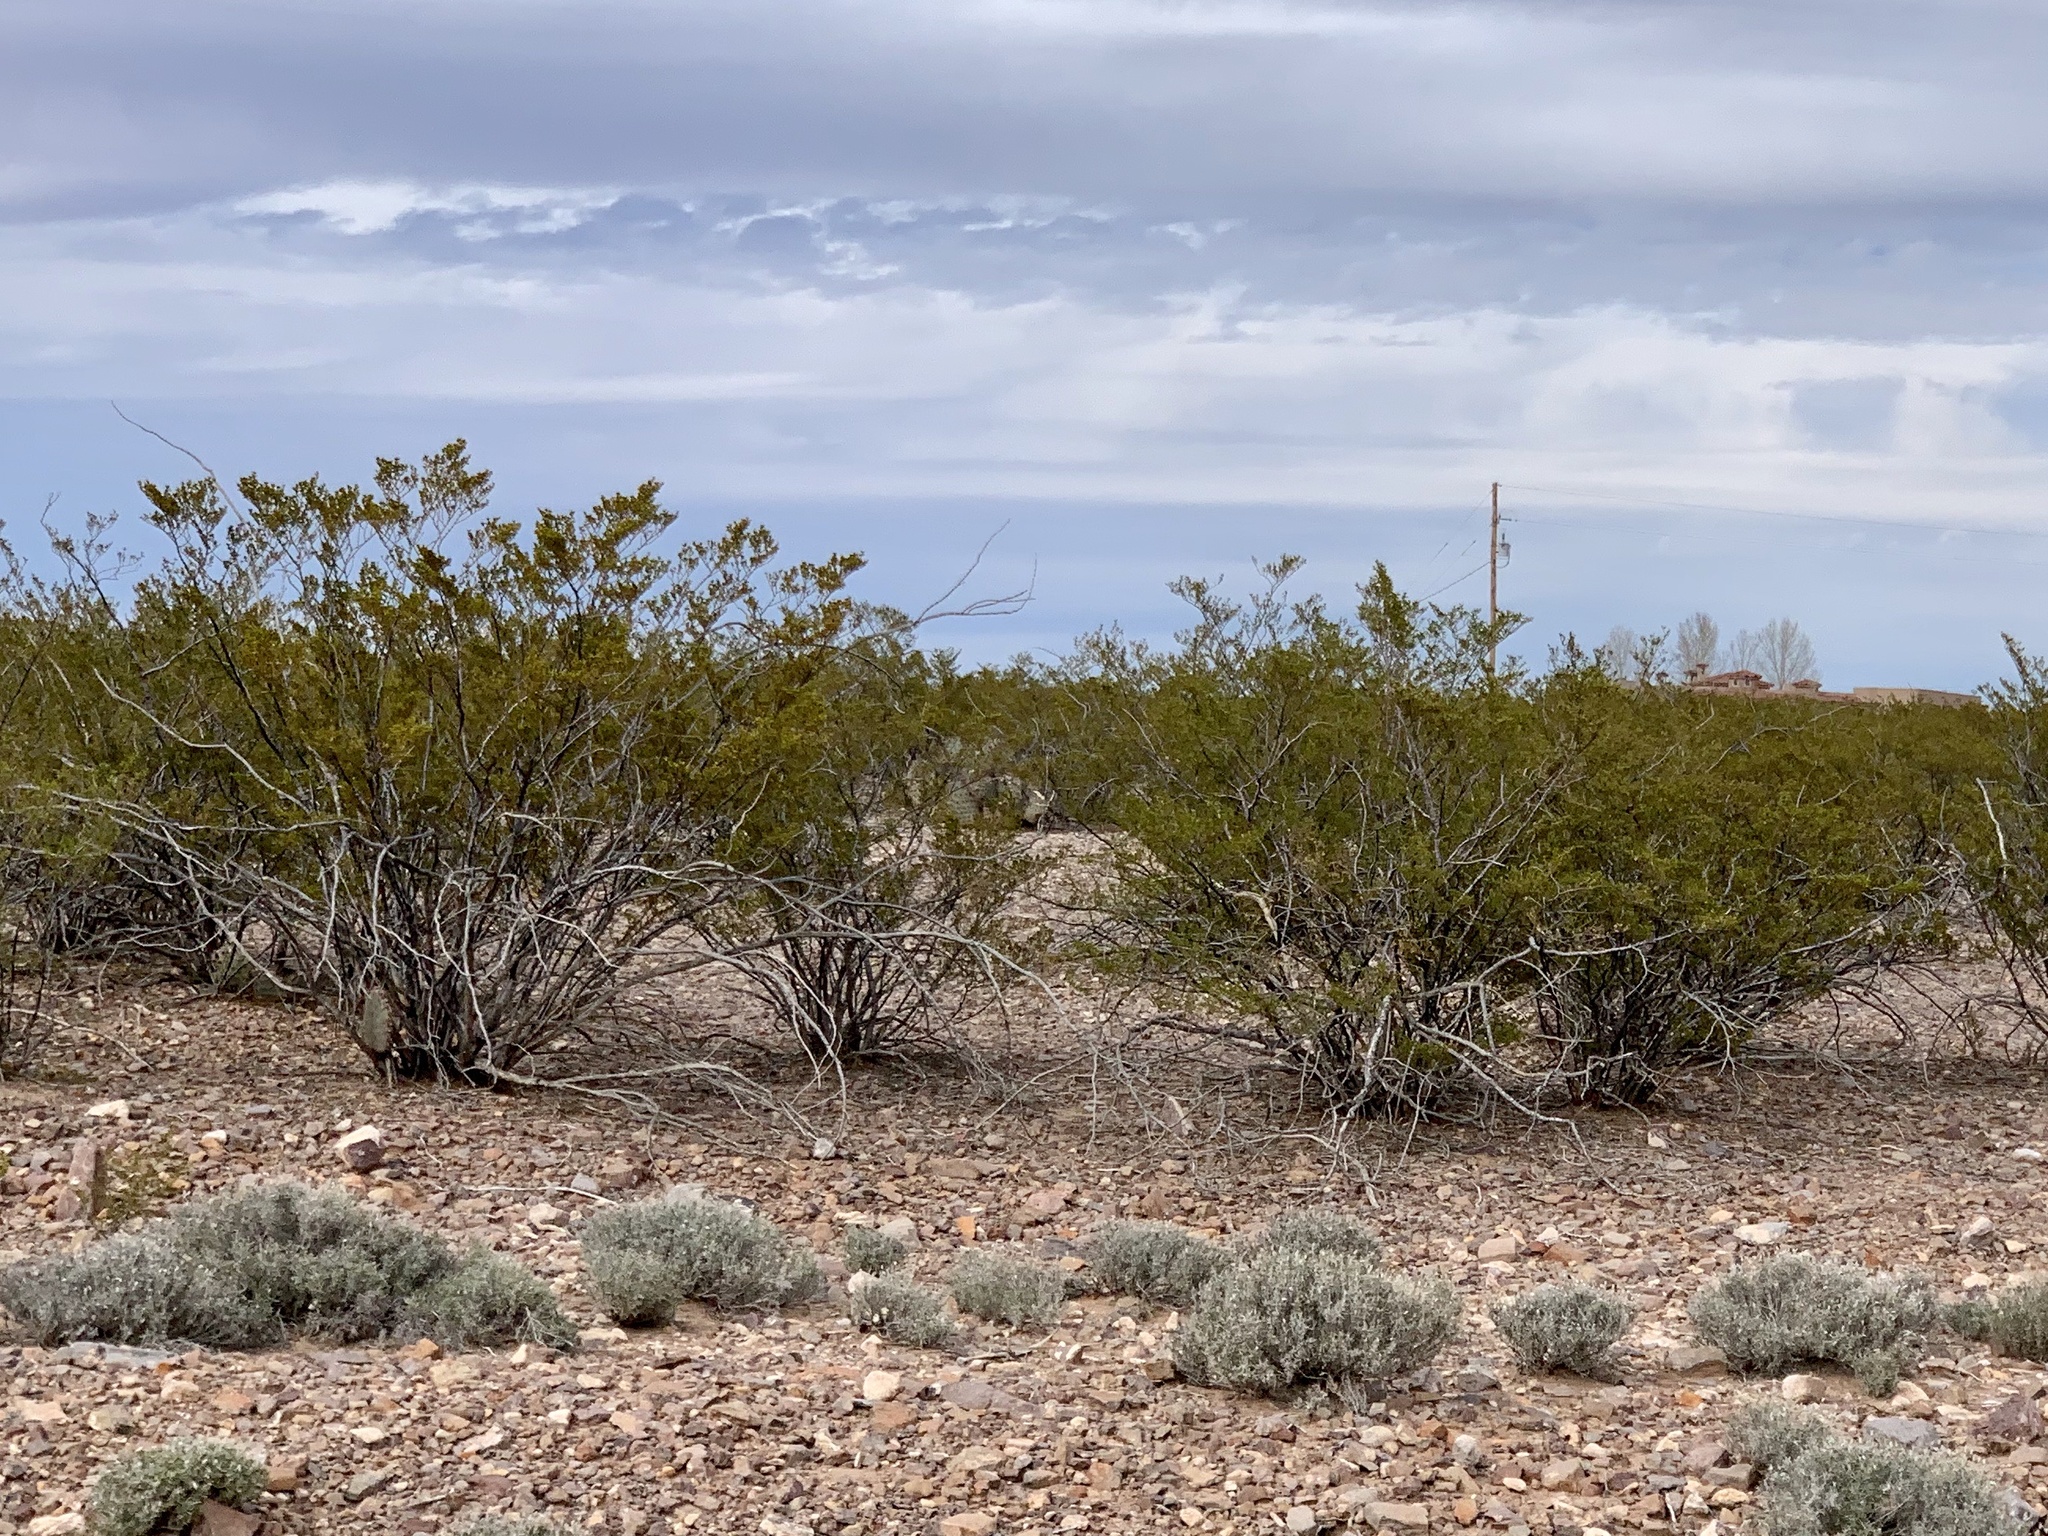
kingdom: Plantae
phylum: Tracheophyta
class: Magnoliopsida
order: Zygophyllales
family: Zygophyllaceae
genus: Larrea
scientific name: Larrea tridentata
